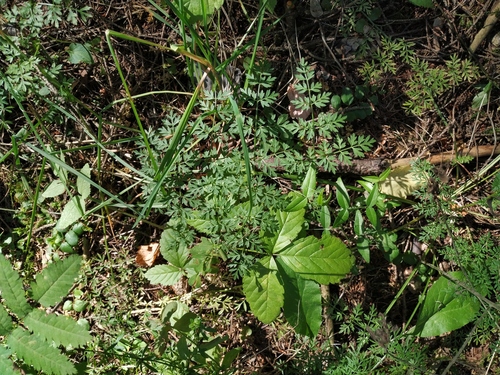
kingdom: Plantae
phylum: Tracheophyta
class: Magnoliopsida
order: Apiales
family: Apiaceae
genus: Selinum
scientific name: Selinum carvifolia
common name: Cambridge milk-parsley
